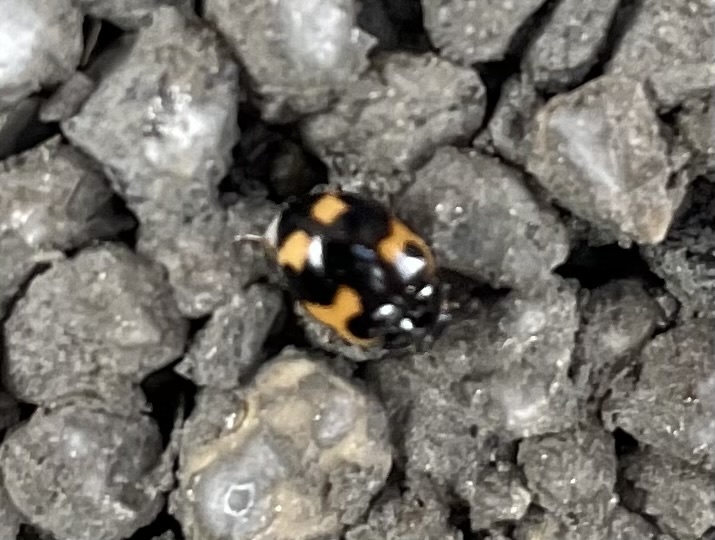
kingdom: Animalia
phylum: Arthropoda
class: Insecta
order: Coleoptera
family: Coccinellidae
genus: Ceratomegilla
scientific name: Ceratomegilla alpina
